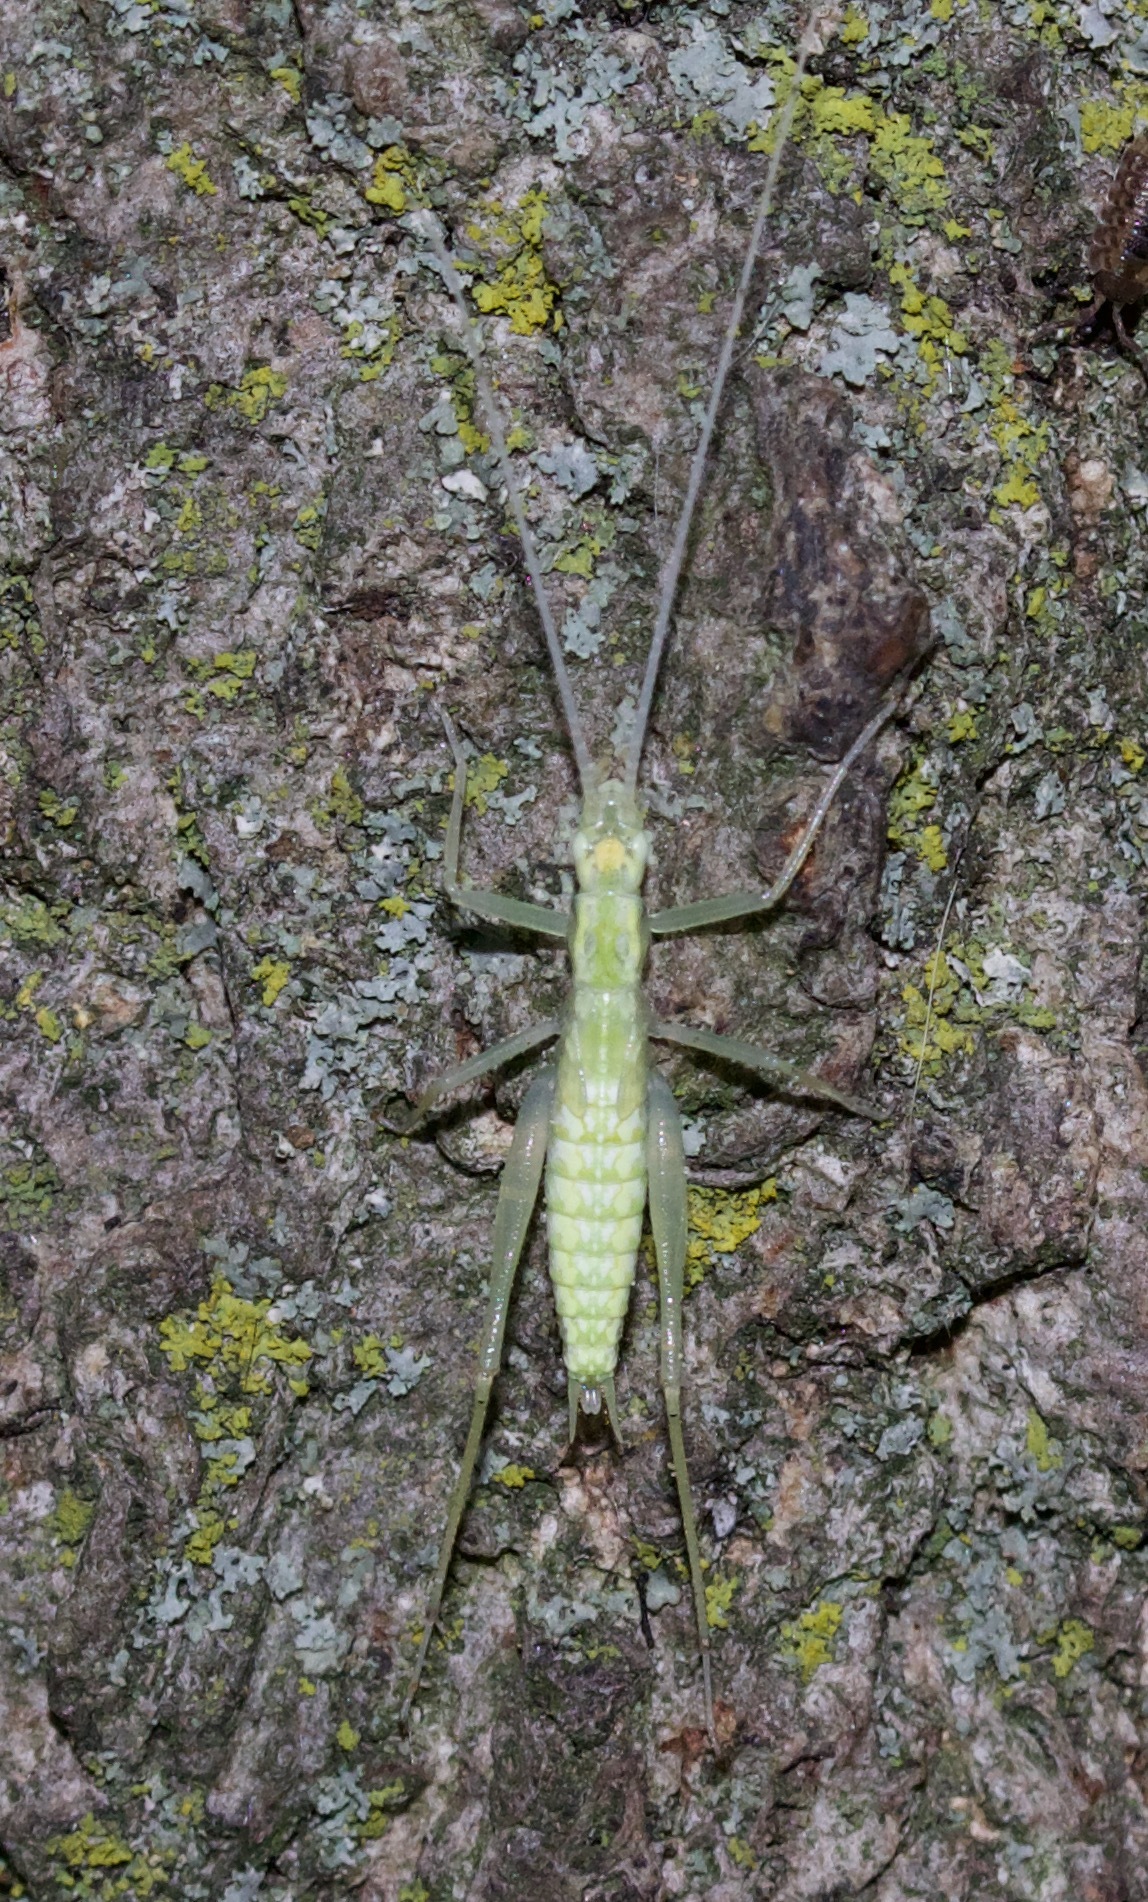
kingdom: Animalia
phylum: Arthropoda
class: Insecta
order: Orthoptera
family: Gryllidae
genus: Oecanthus
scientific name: Oecanthus niveus
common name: Narrow-winged tree cricket
